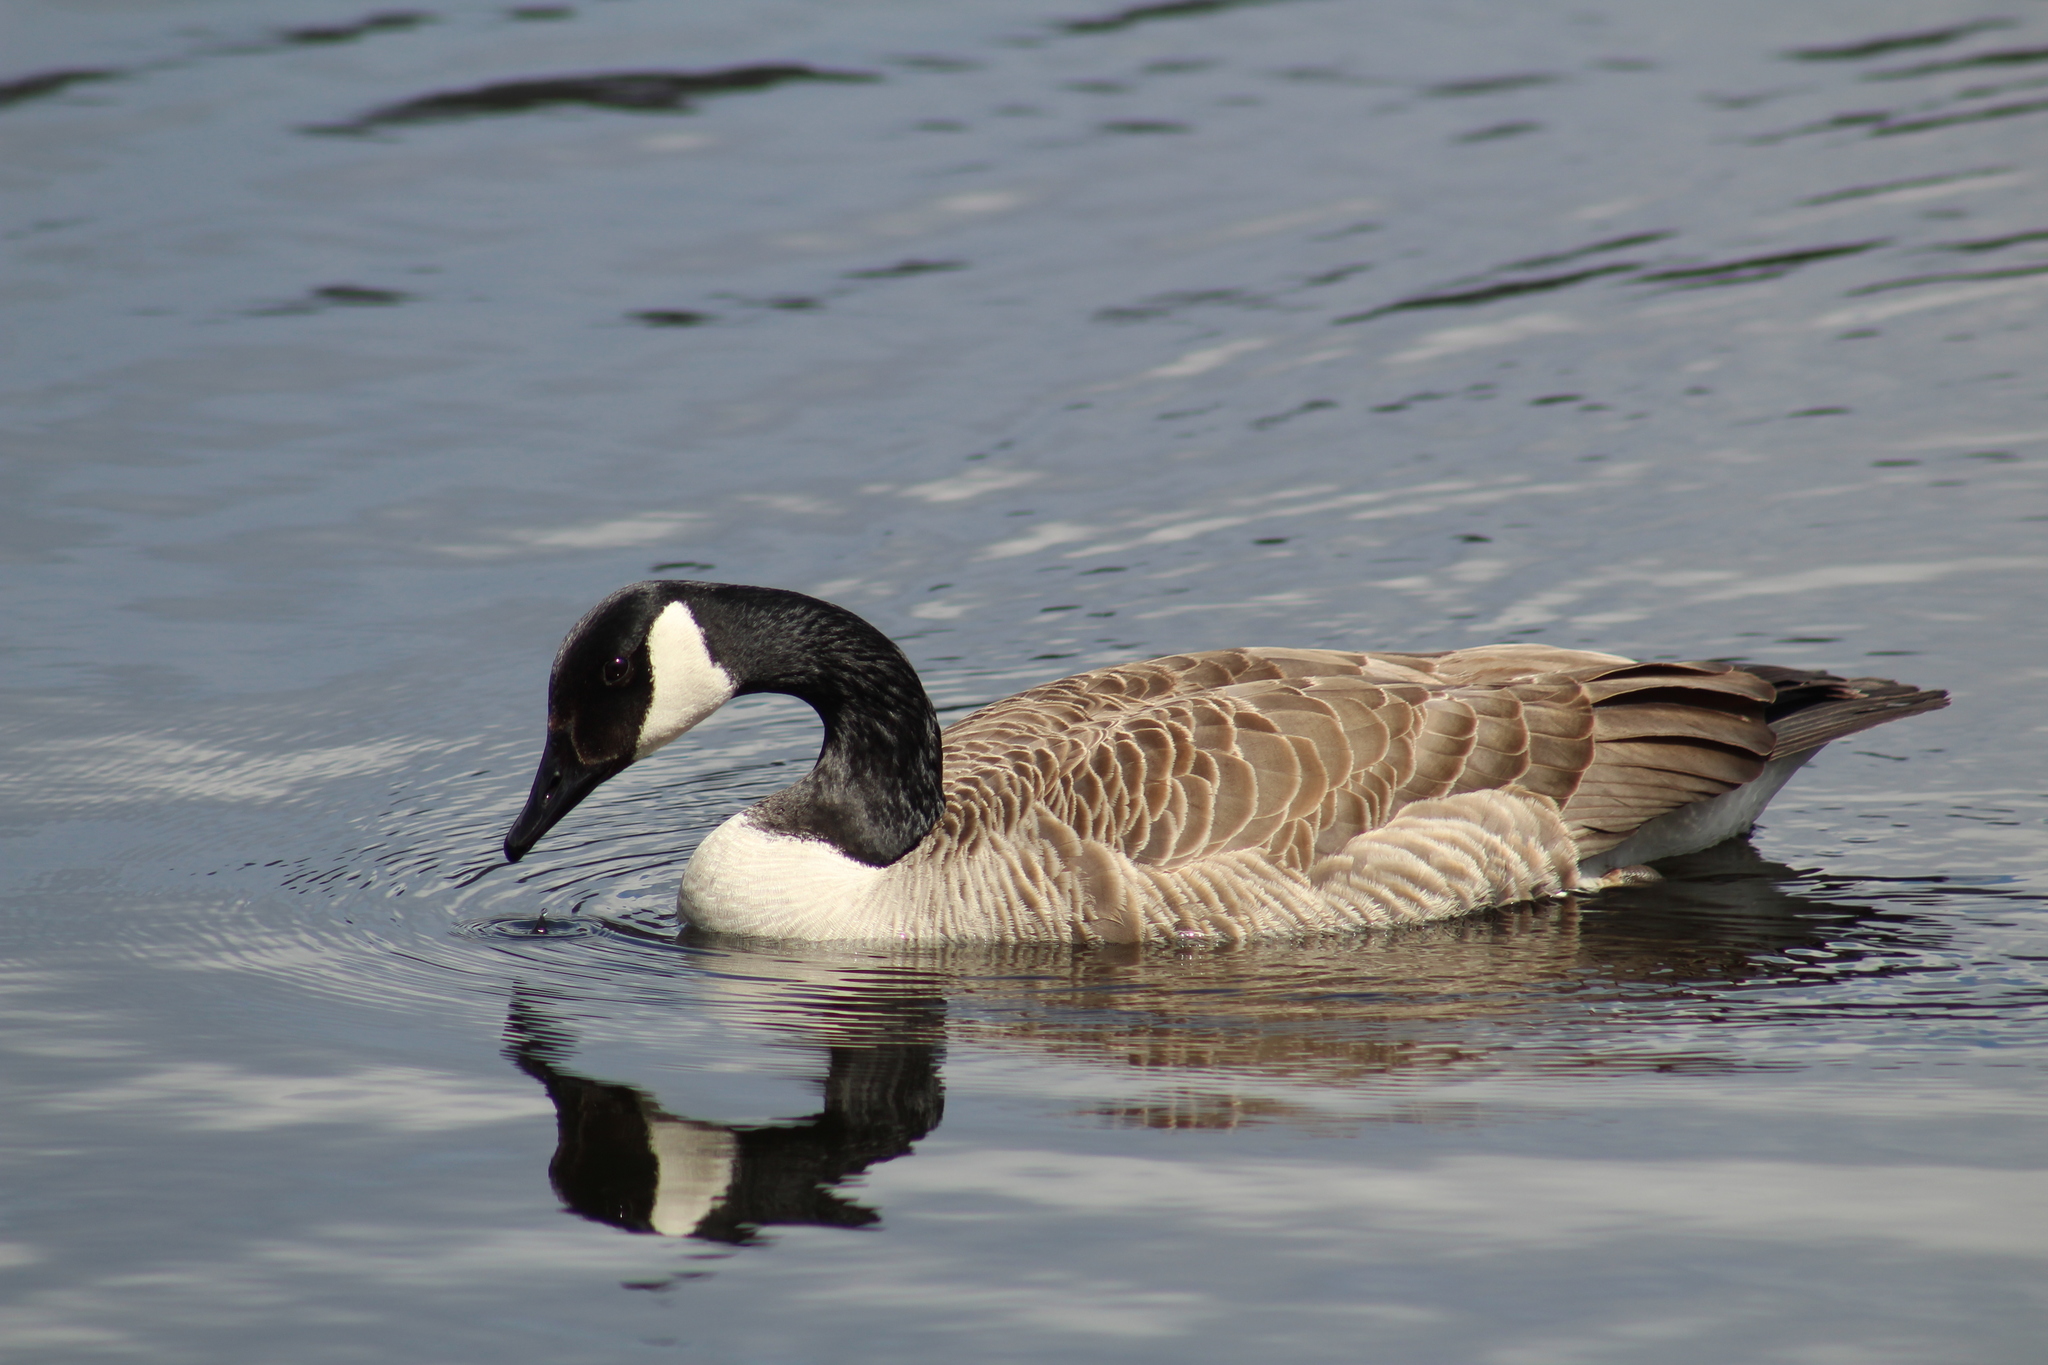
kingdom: Animalia
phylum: Chordata
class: Aves
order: Anseriformes
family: Anatidae
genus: Branta
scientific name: Branta canadensis
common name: Canada goose
